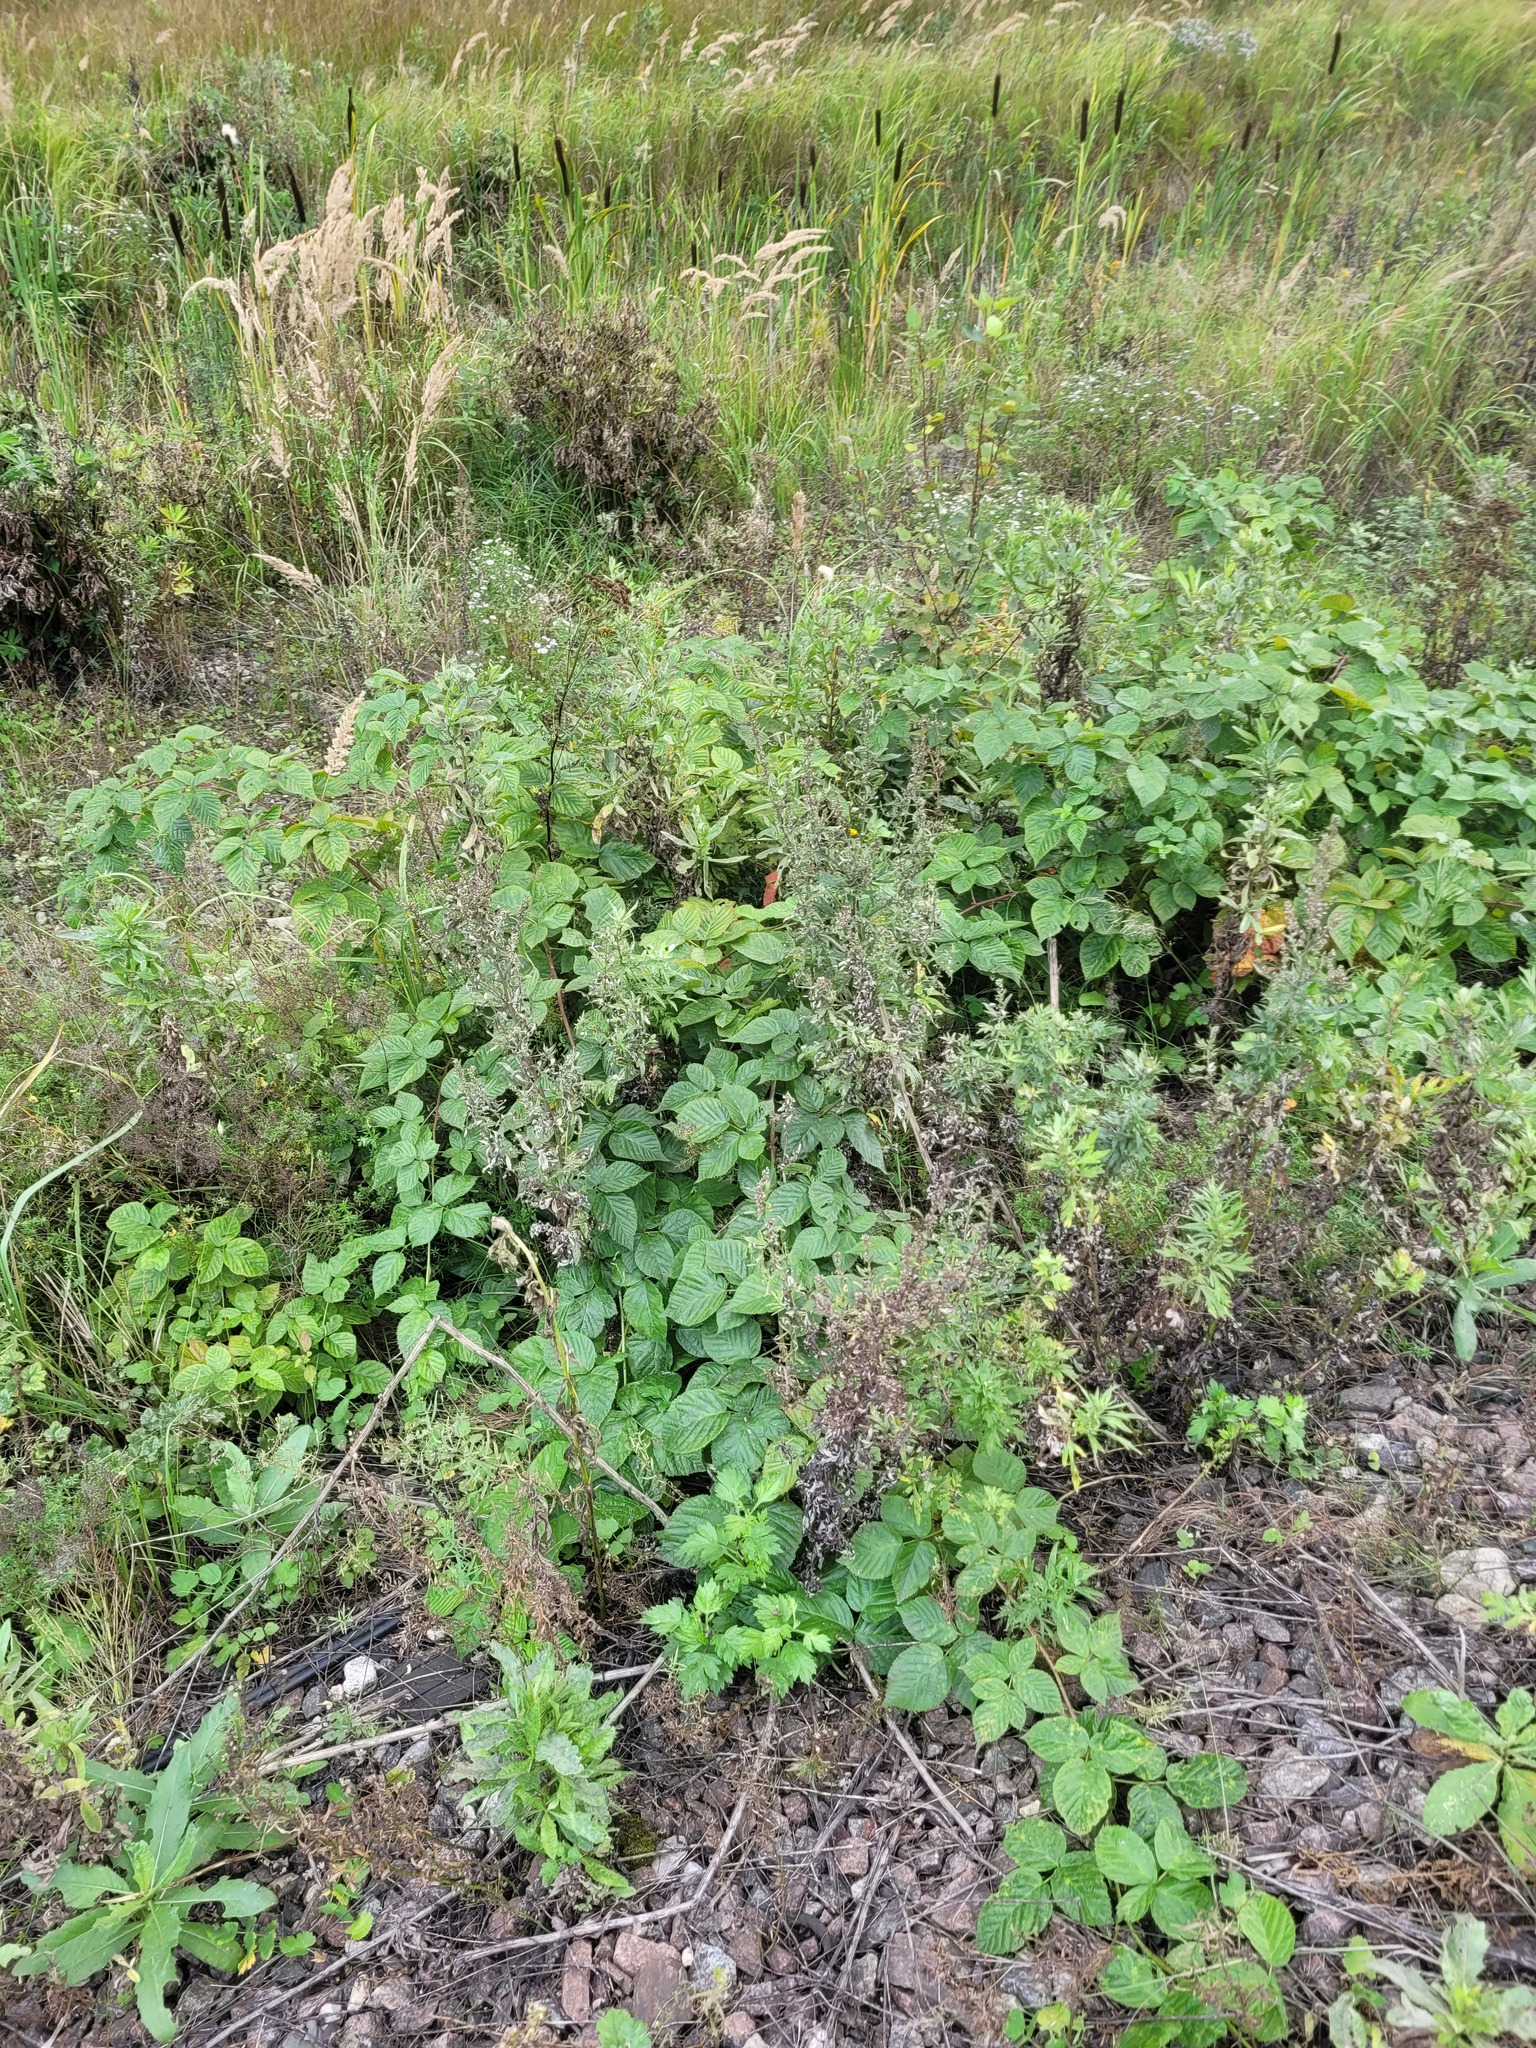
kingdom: Plantae
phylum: Tracheophyta
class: Magnoliopsida
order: Rosales
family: Rosaceae
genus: Rubus
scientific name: Rubus polonicus
